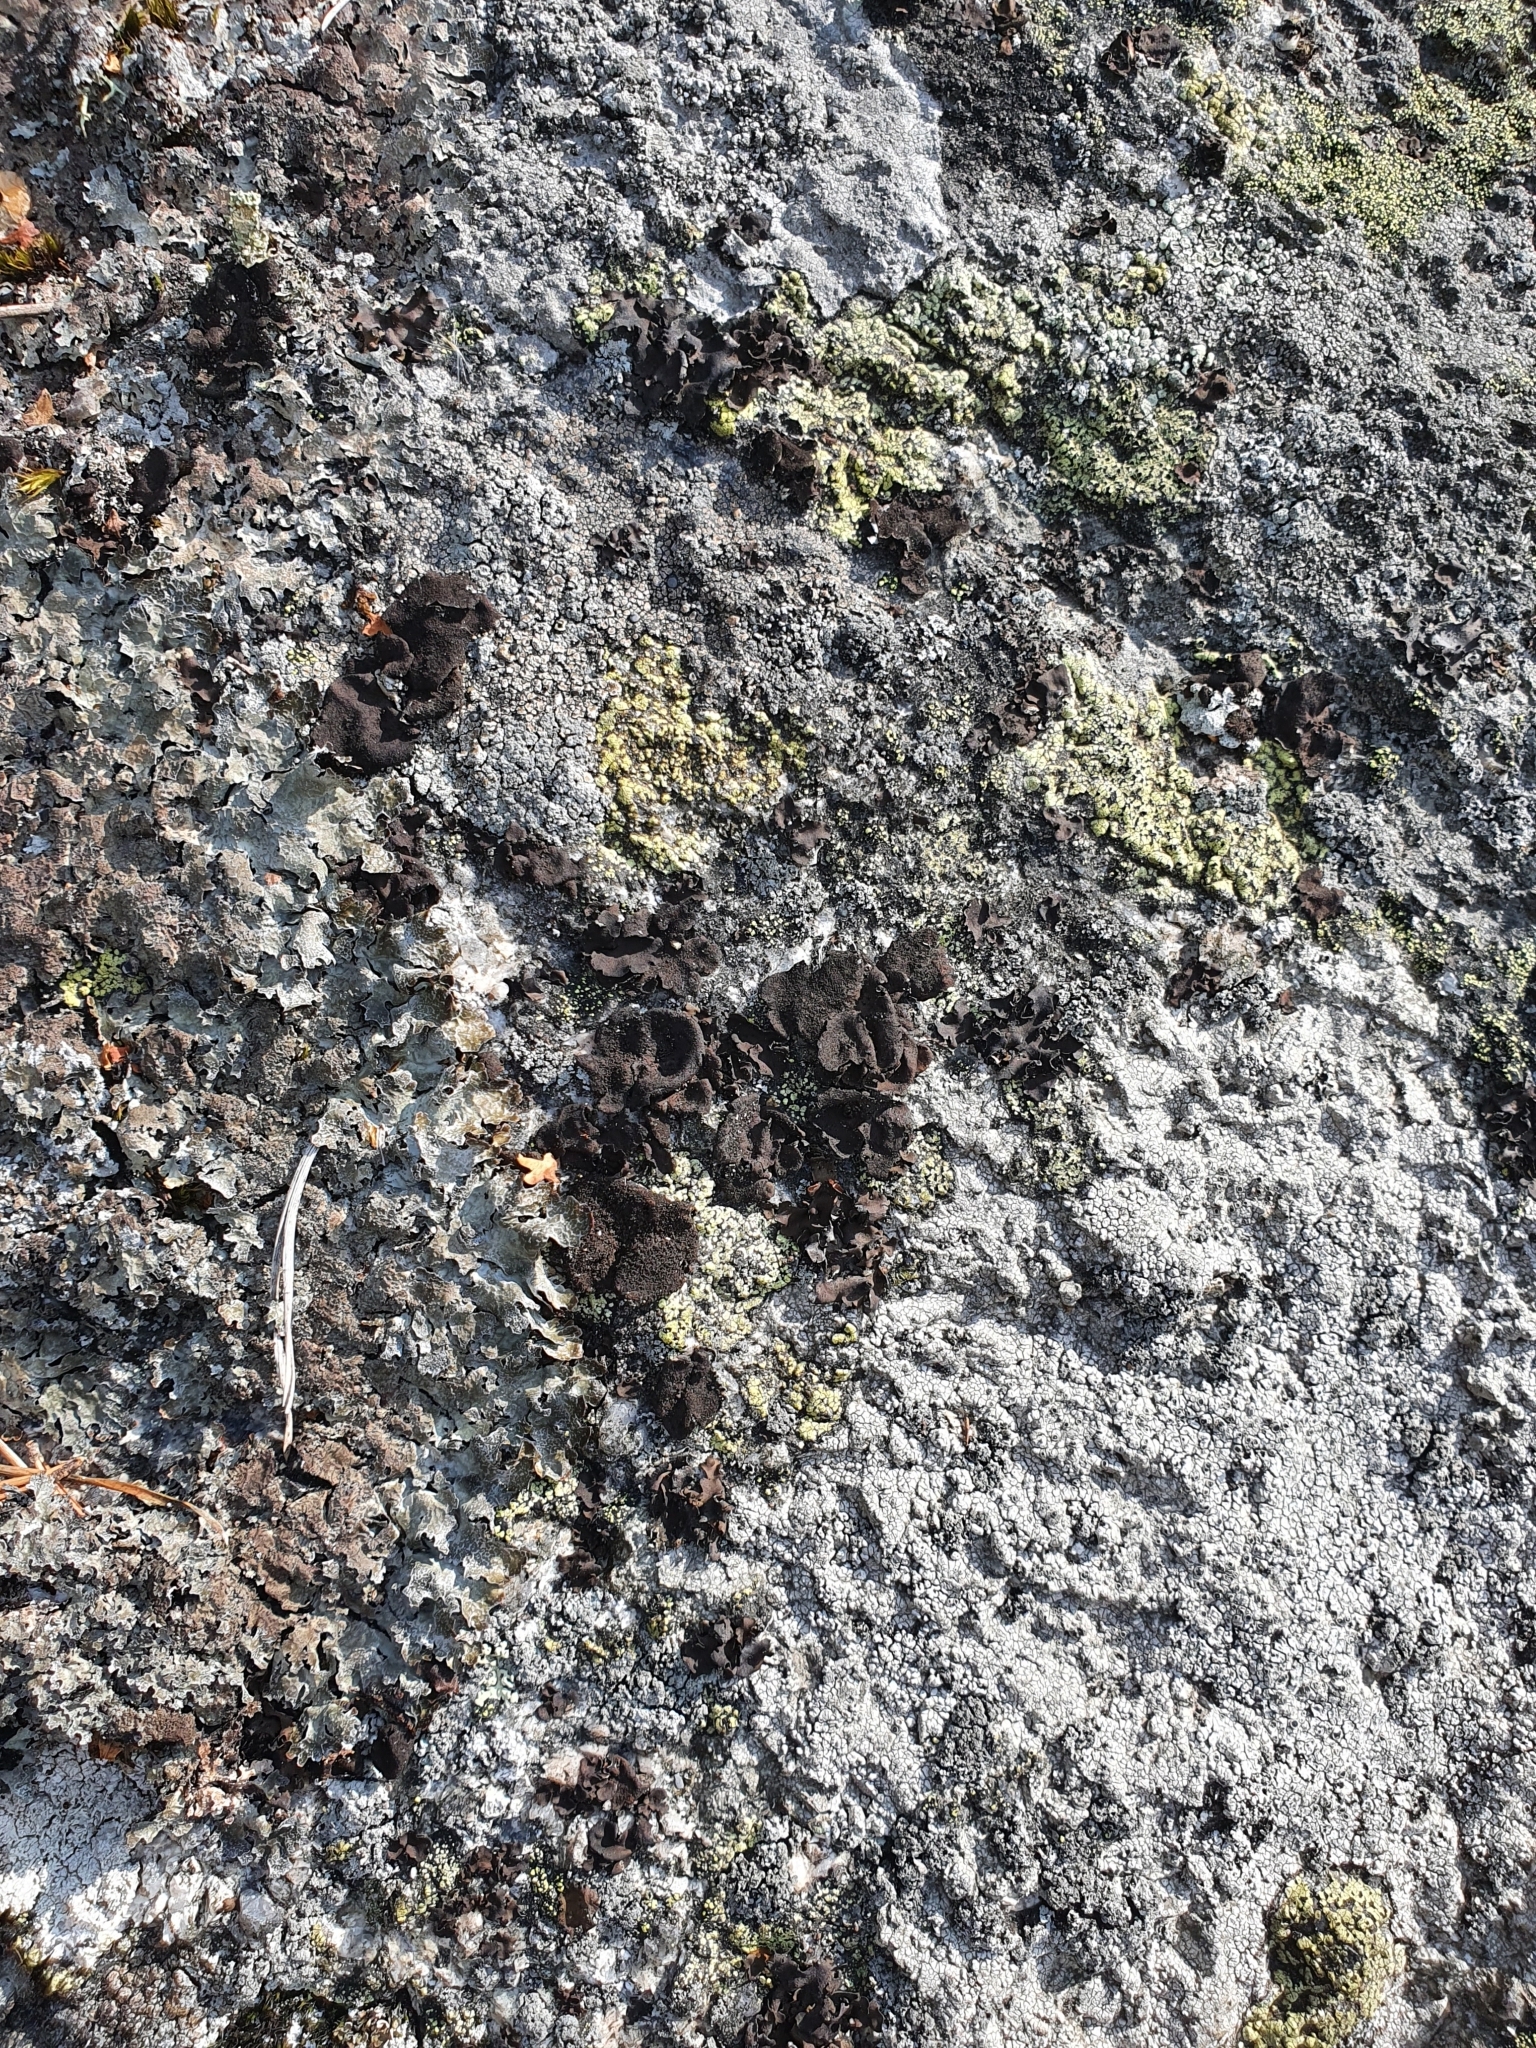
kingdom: Fungi
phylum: Ascomycota
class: Lecanoromycetes
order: Umbilicariales
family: Umbilicariaceae
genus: Umbilicaria
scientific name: Umbilicaria deusta
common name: Peppered rock tripe
